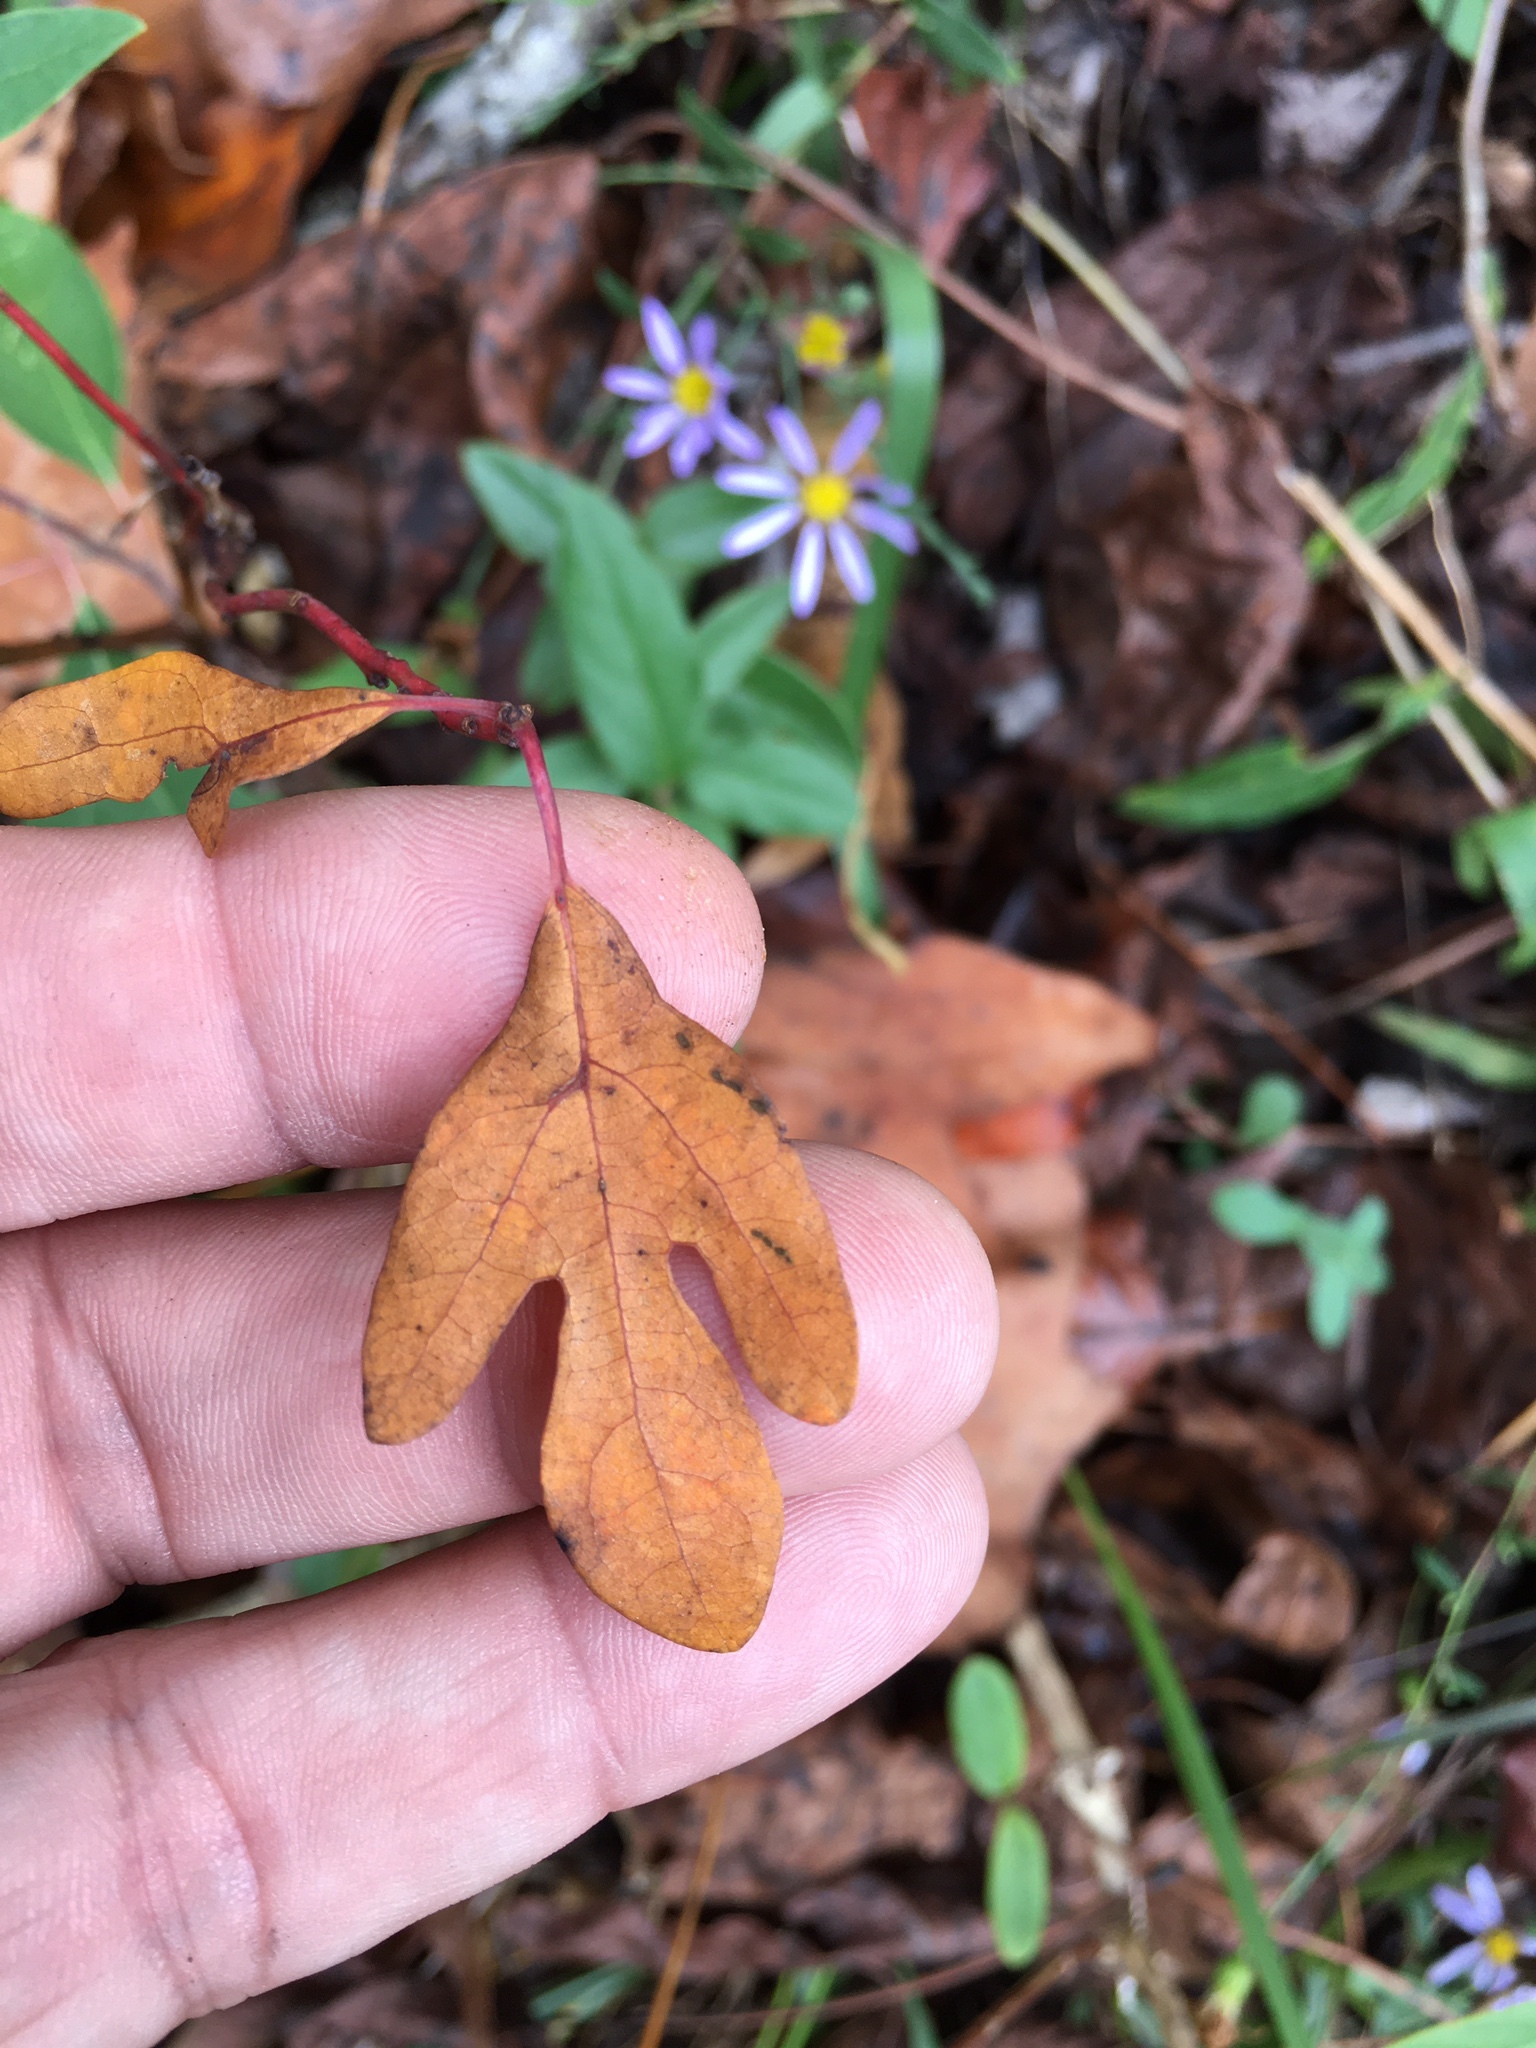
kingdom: Plantae
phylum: Tracheophyta
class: Magnoliopsida
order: Laurales
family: Lauraceae
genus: Sassafras
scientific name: Sassafras albidum
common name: Sassafras
